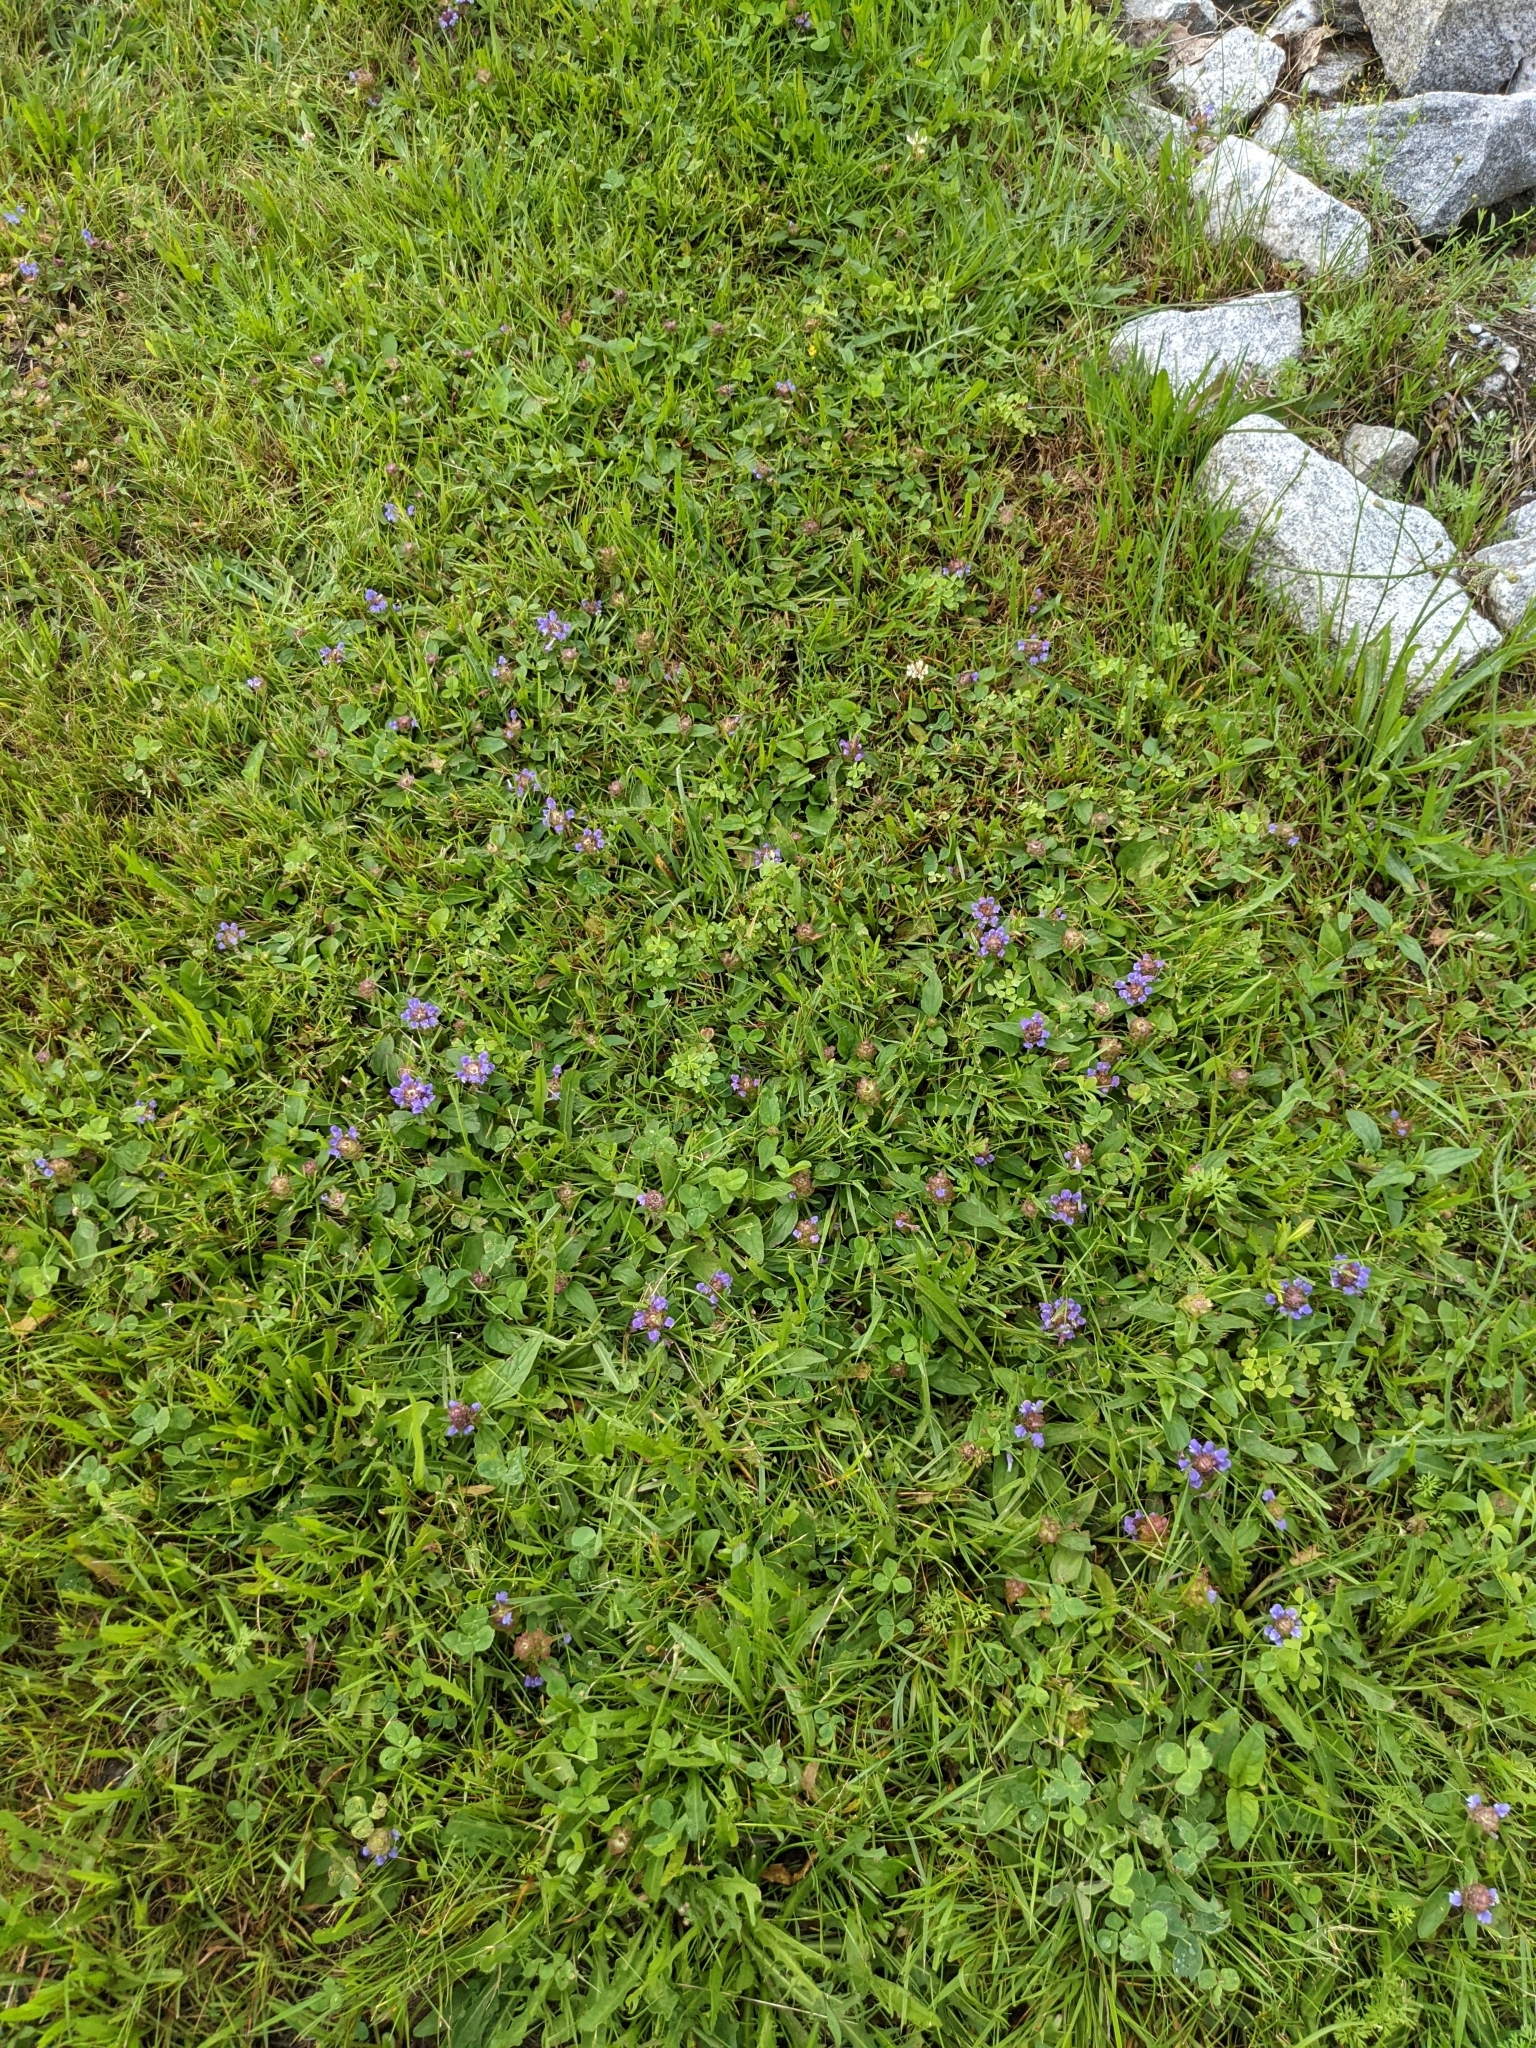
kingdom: Plantae
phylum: Tracheophyta
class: Magnoliopsida
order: Lamiales
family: Lamiaceae
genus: Prunella
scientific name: Prunella vulgaris
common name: Heal-all
